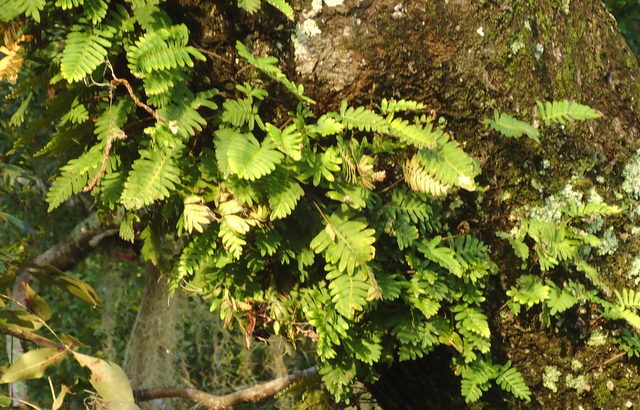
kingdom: Plantae
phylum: Tracheophyta
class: Polypodiopsida
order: Polypodiales
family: Polypodiaceae
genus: Pleopeltis
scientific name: Pleopeltis michauxiana
